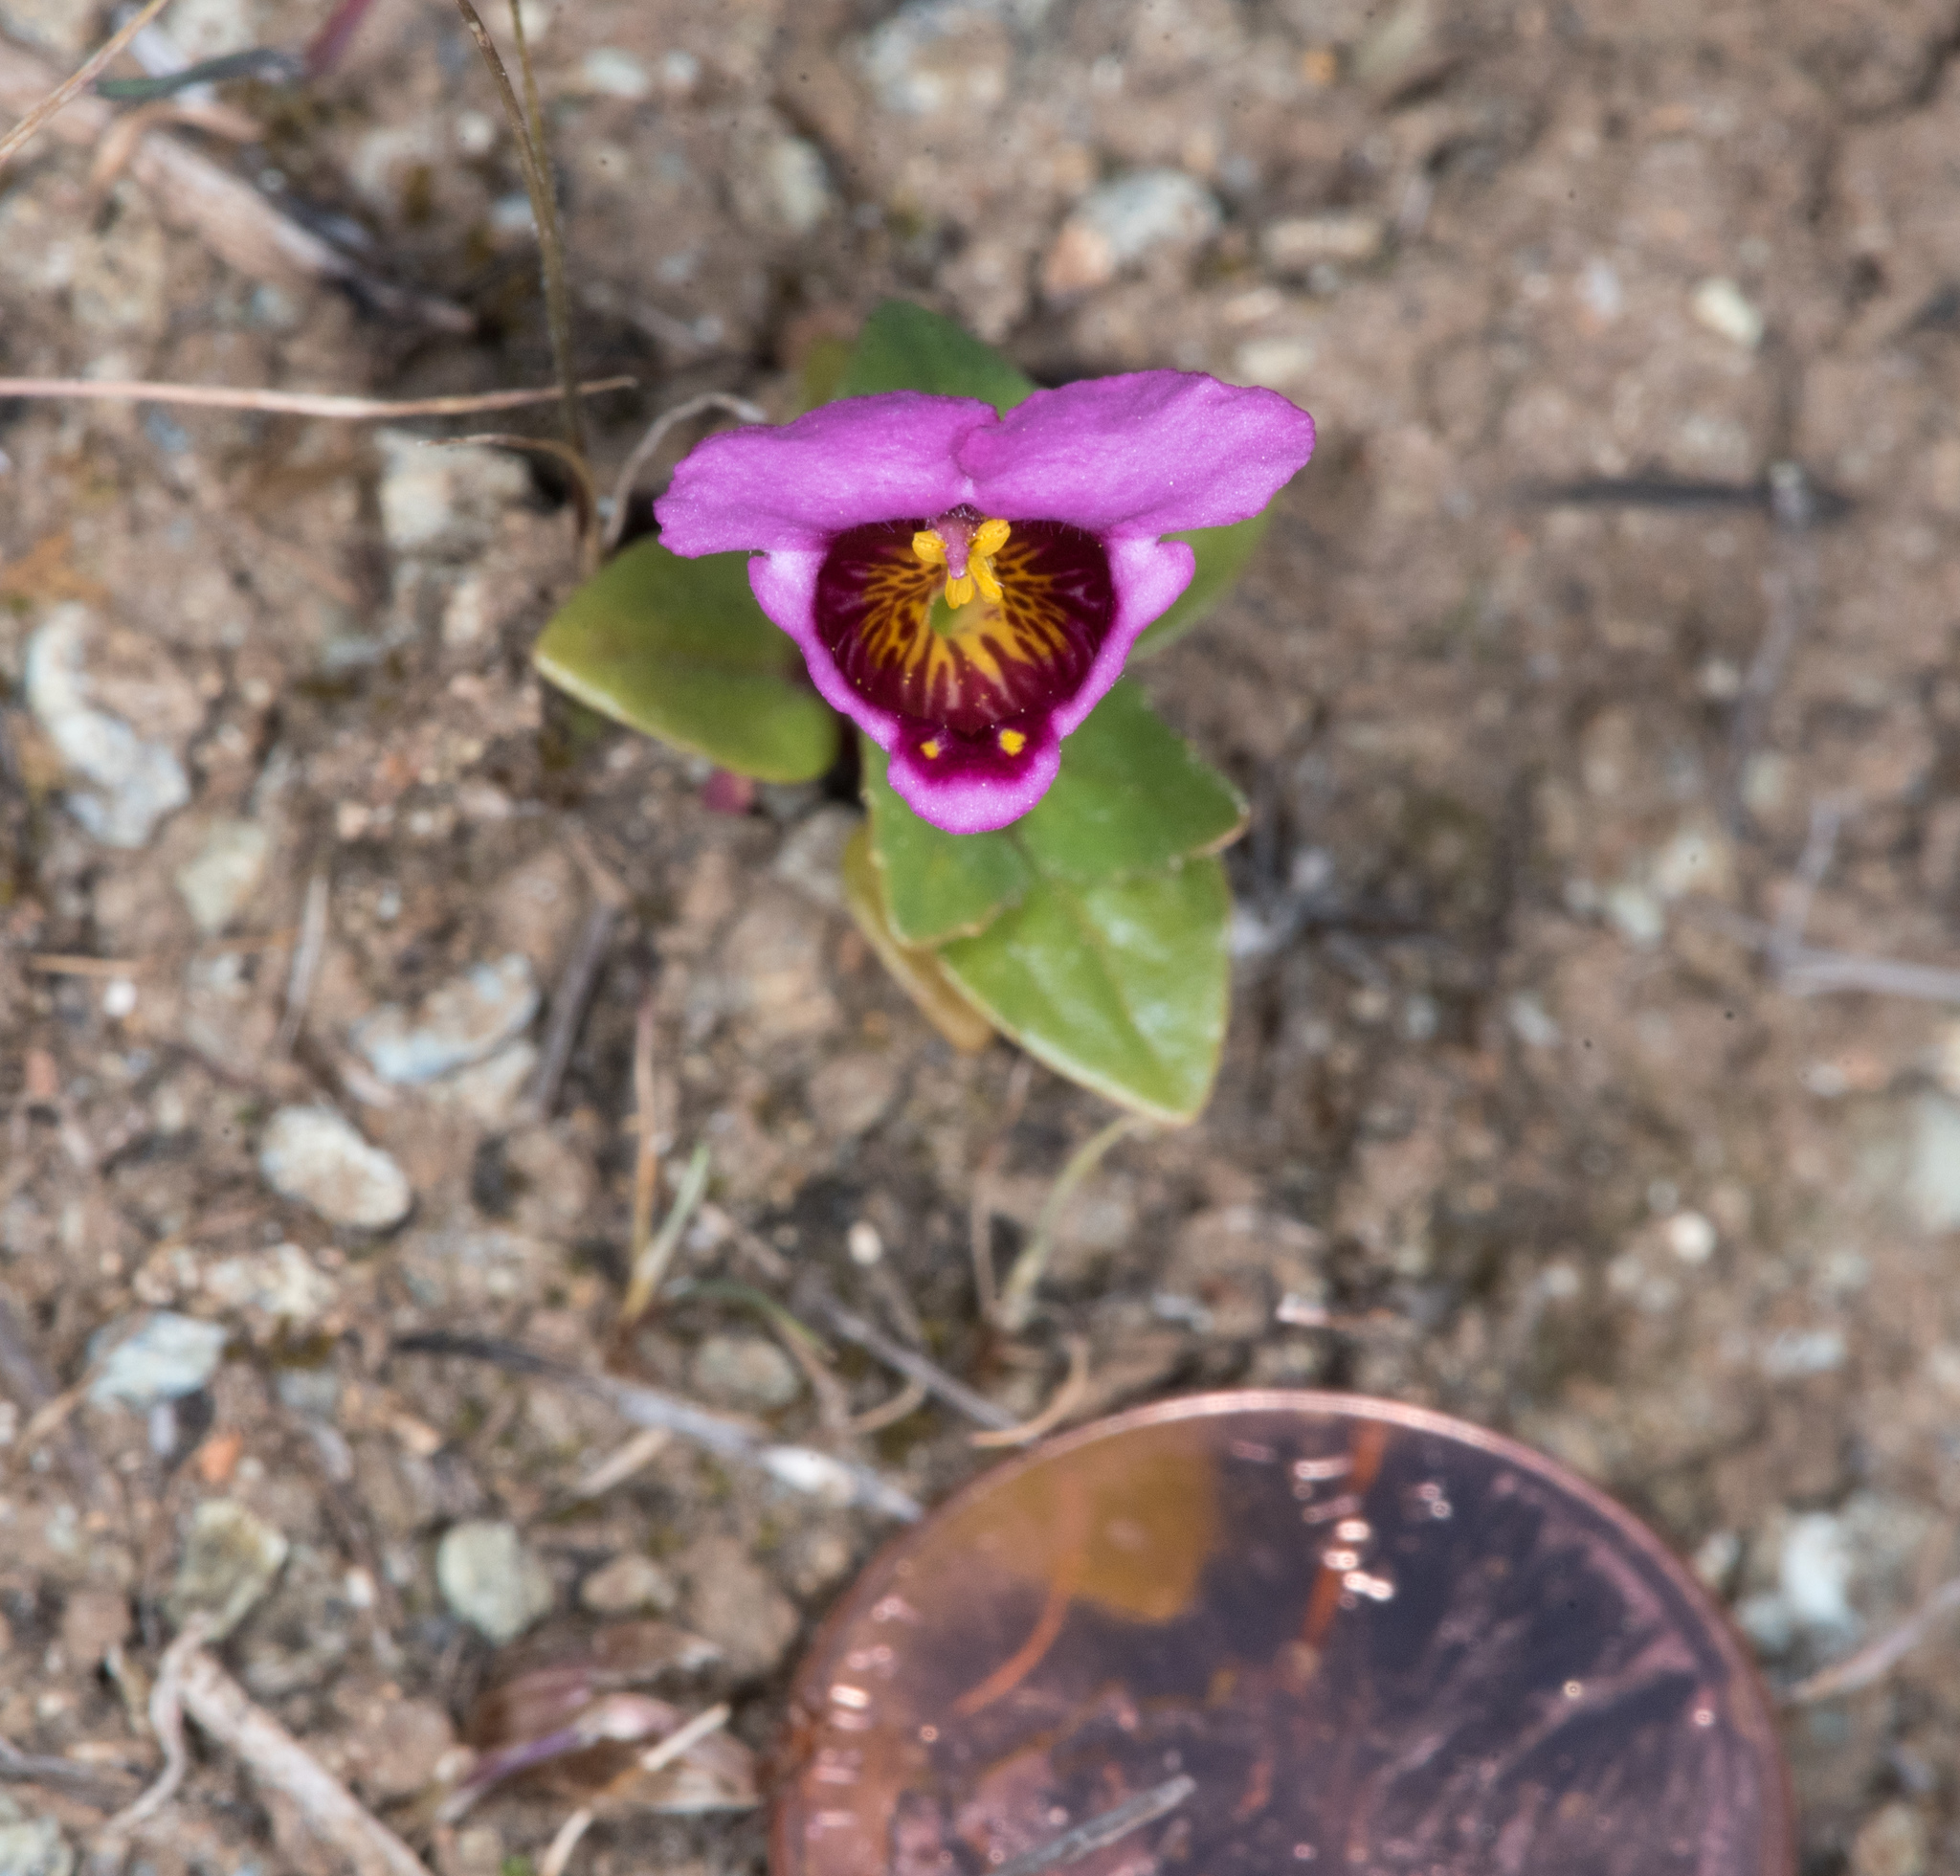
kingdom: Plantae
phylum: Tracheophyta
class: Magnoliopsida
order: Lamiales
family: Phrymaceae
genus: Diplacus
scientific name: Diplacus douglasii
